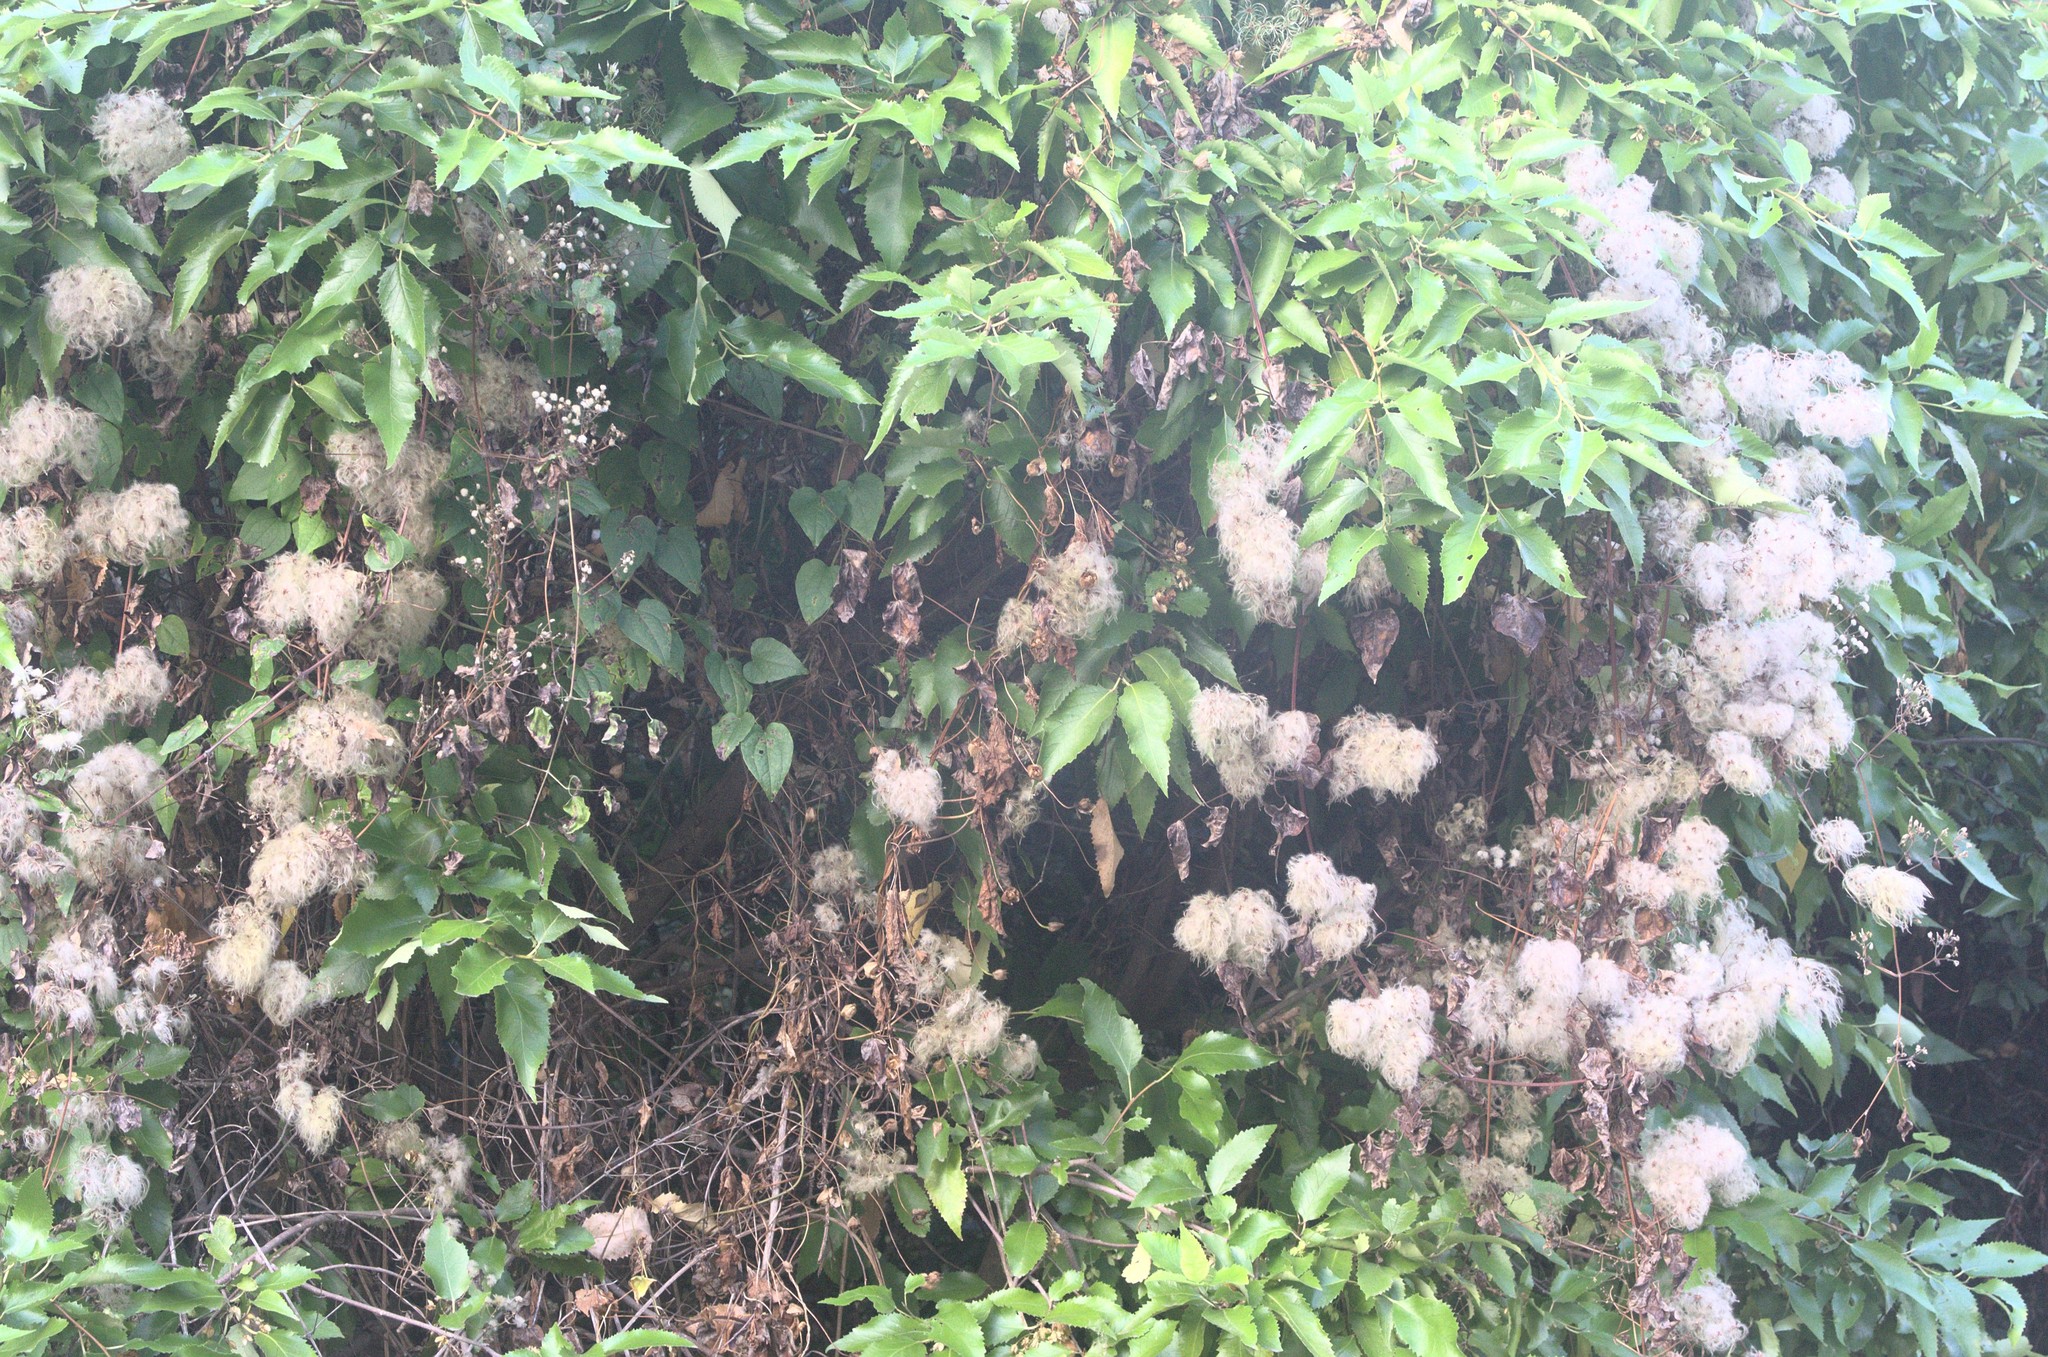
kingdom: Plantae
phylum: Tracheophyta
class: Magnoliopsida
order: Ranunculales
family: Ranunculaceae
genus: Clematis
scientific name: Clematis vitalba
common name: Evergreen clematis
